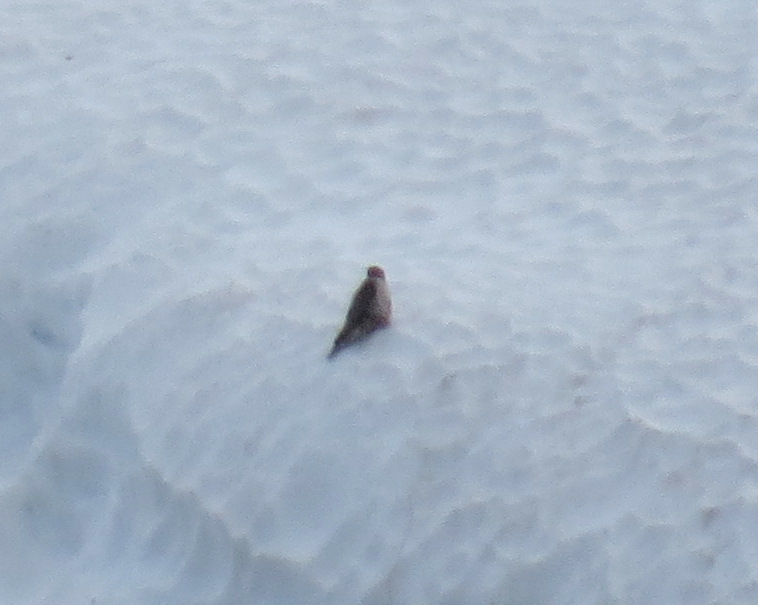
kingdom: Animalia
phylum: Chordata
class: Aves
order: Falconiformes
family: Falconidae
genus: Falco
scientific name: Falco rusticolus
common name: Gyrfalcon
